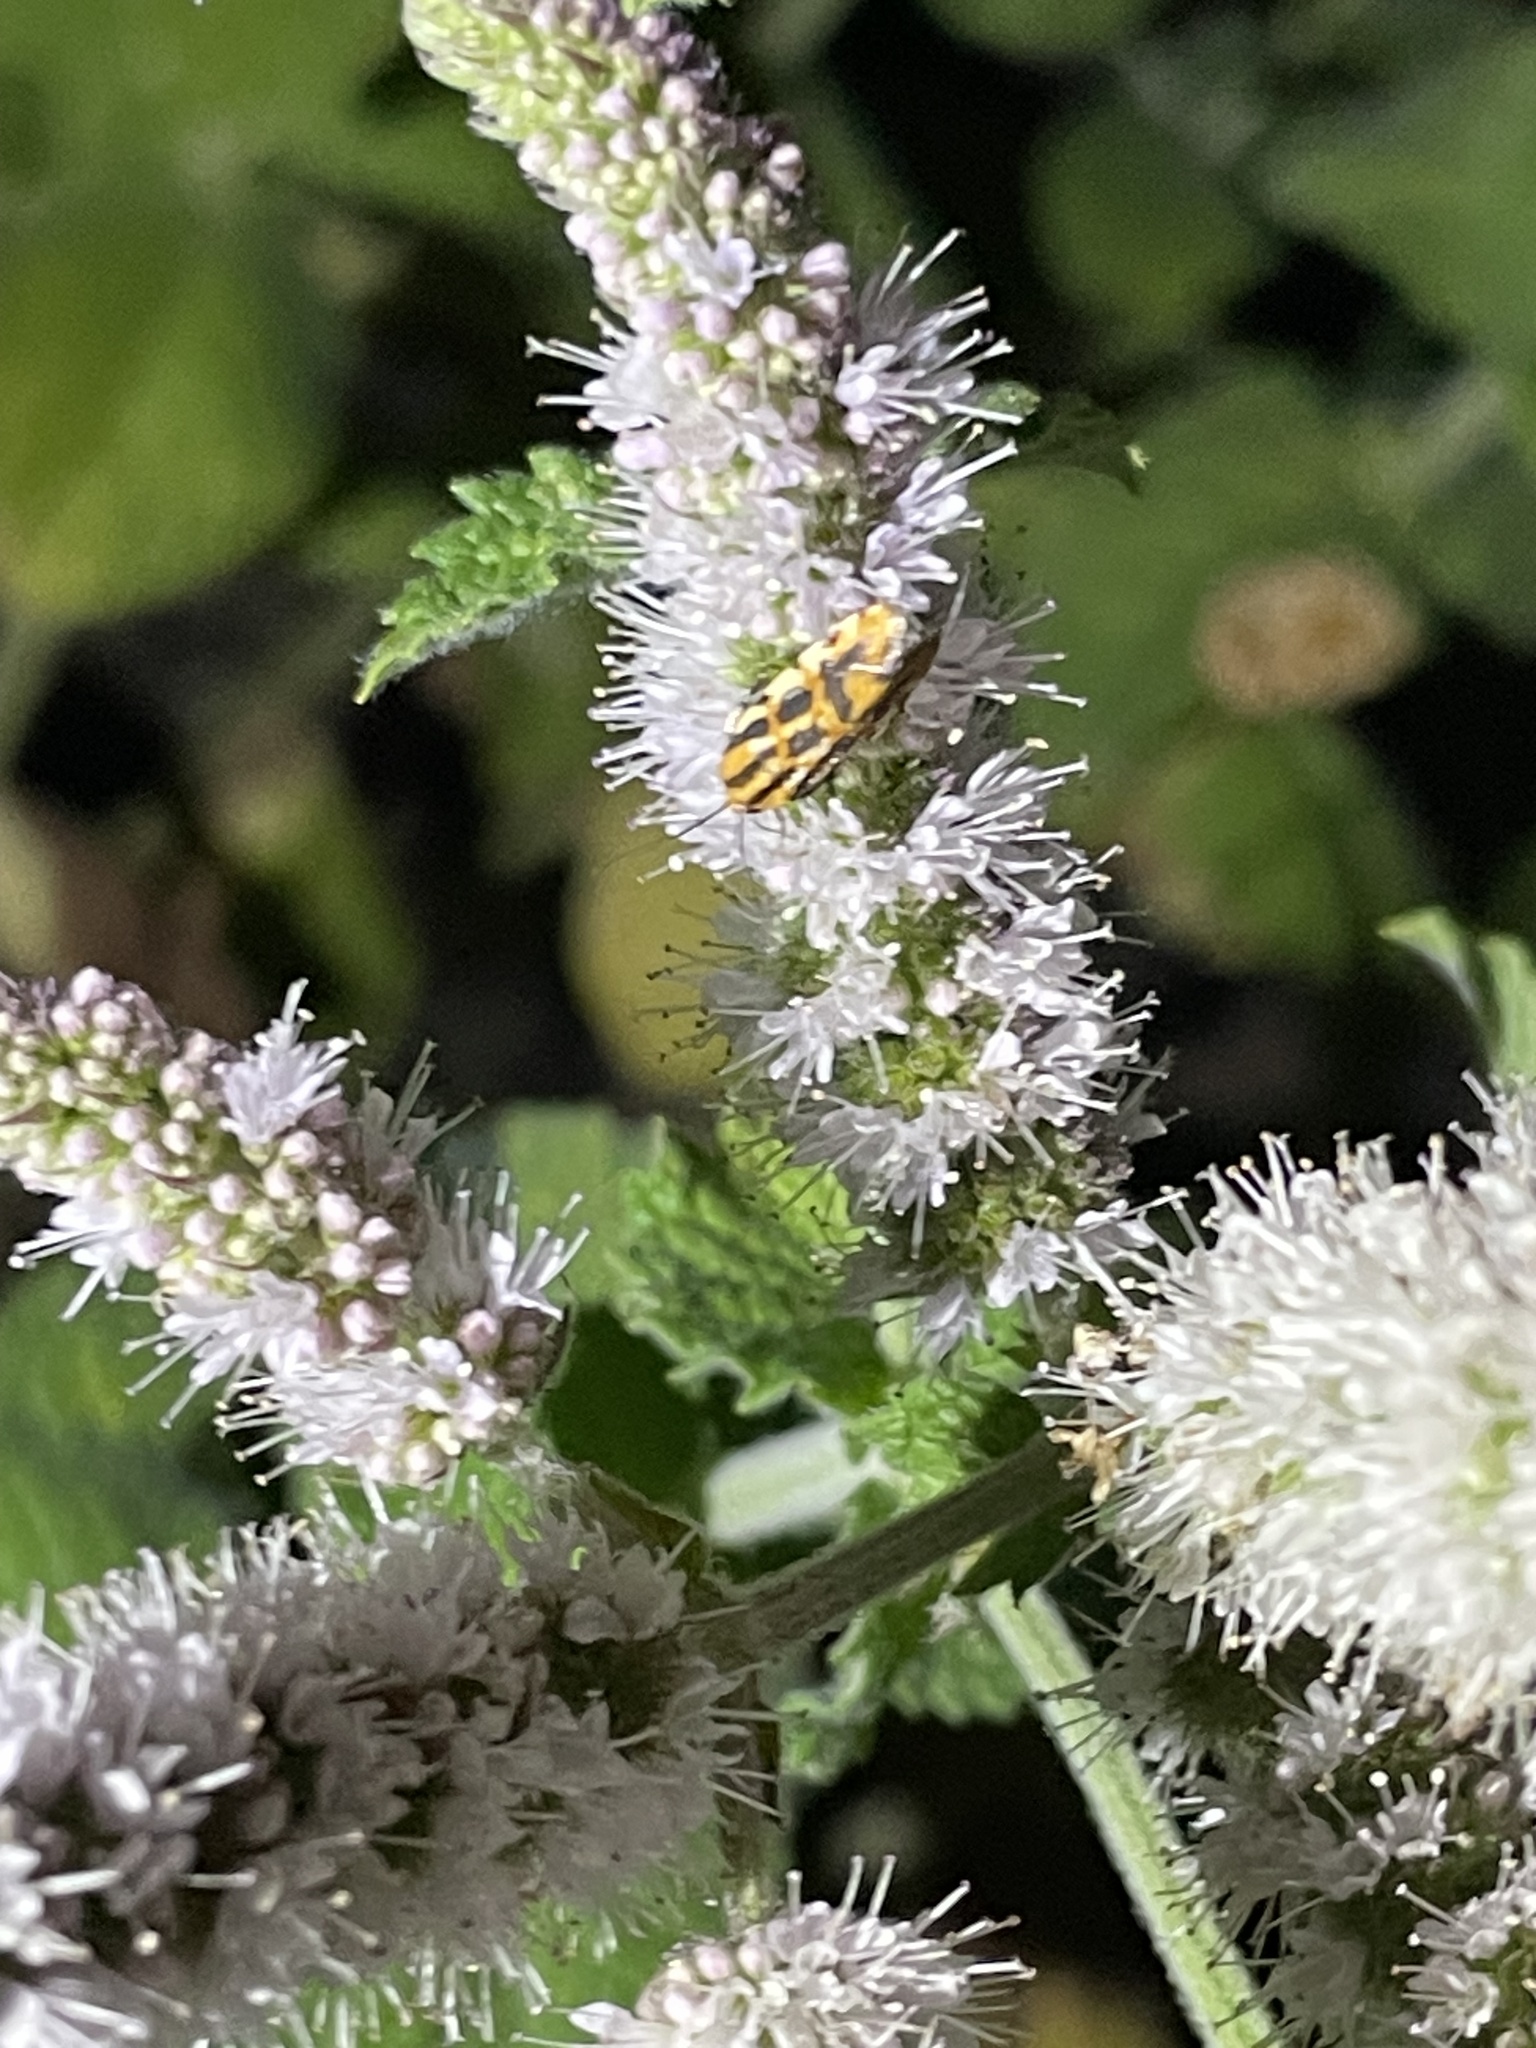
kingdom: Animalia
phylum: Arthropoda
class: Insecta
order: Lepidoptera
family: Noctuidae
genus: Acontia
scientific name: Acontia leo
